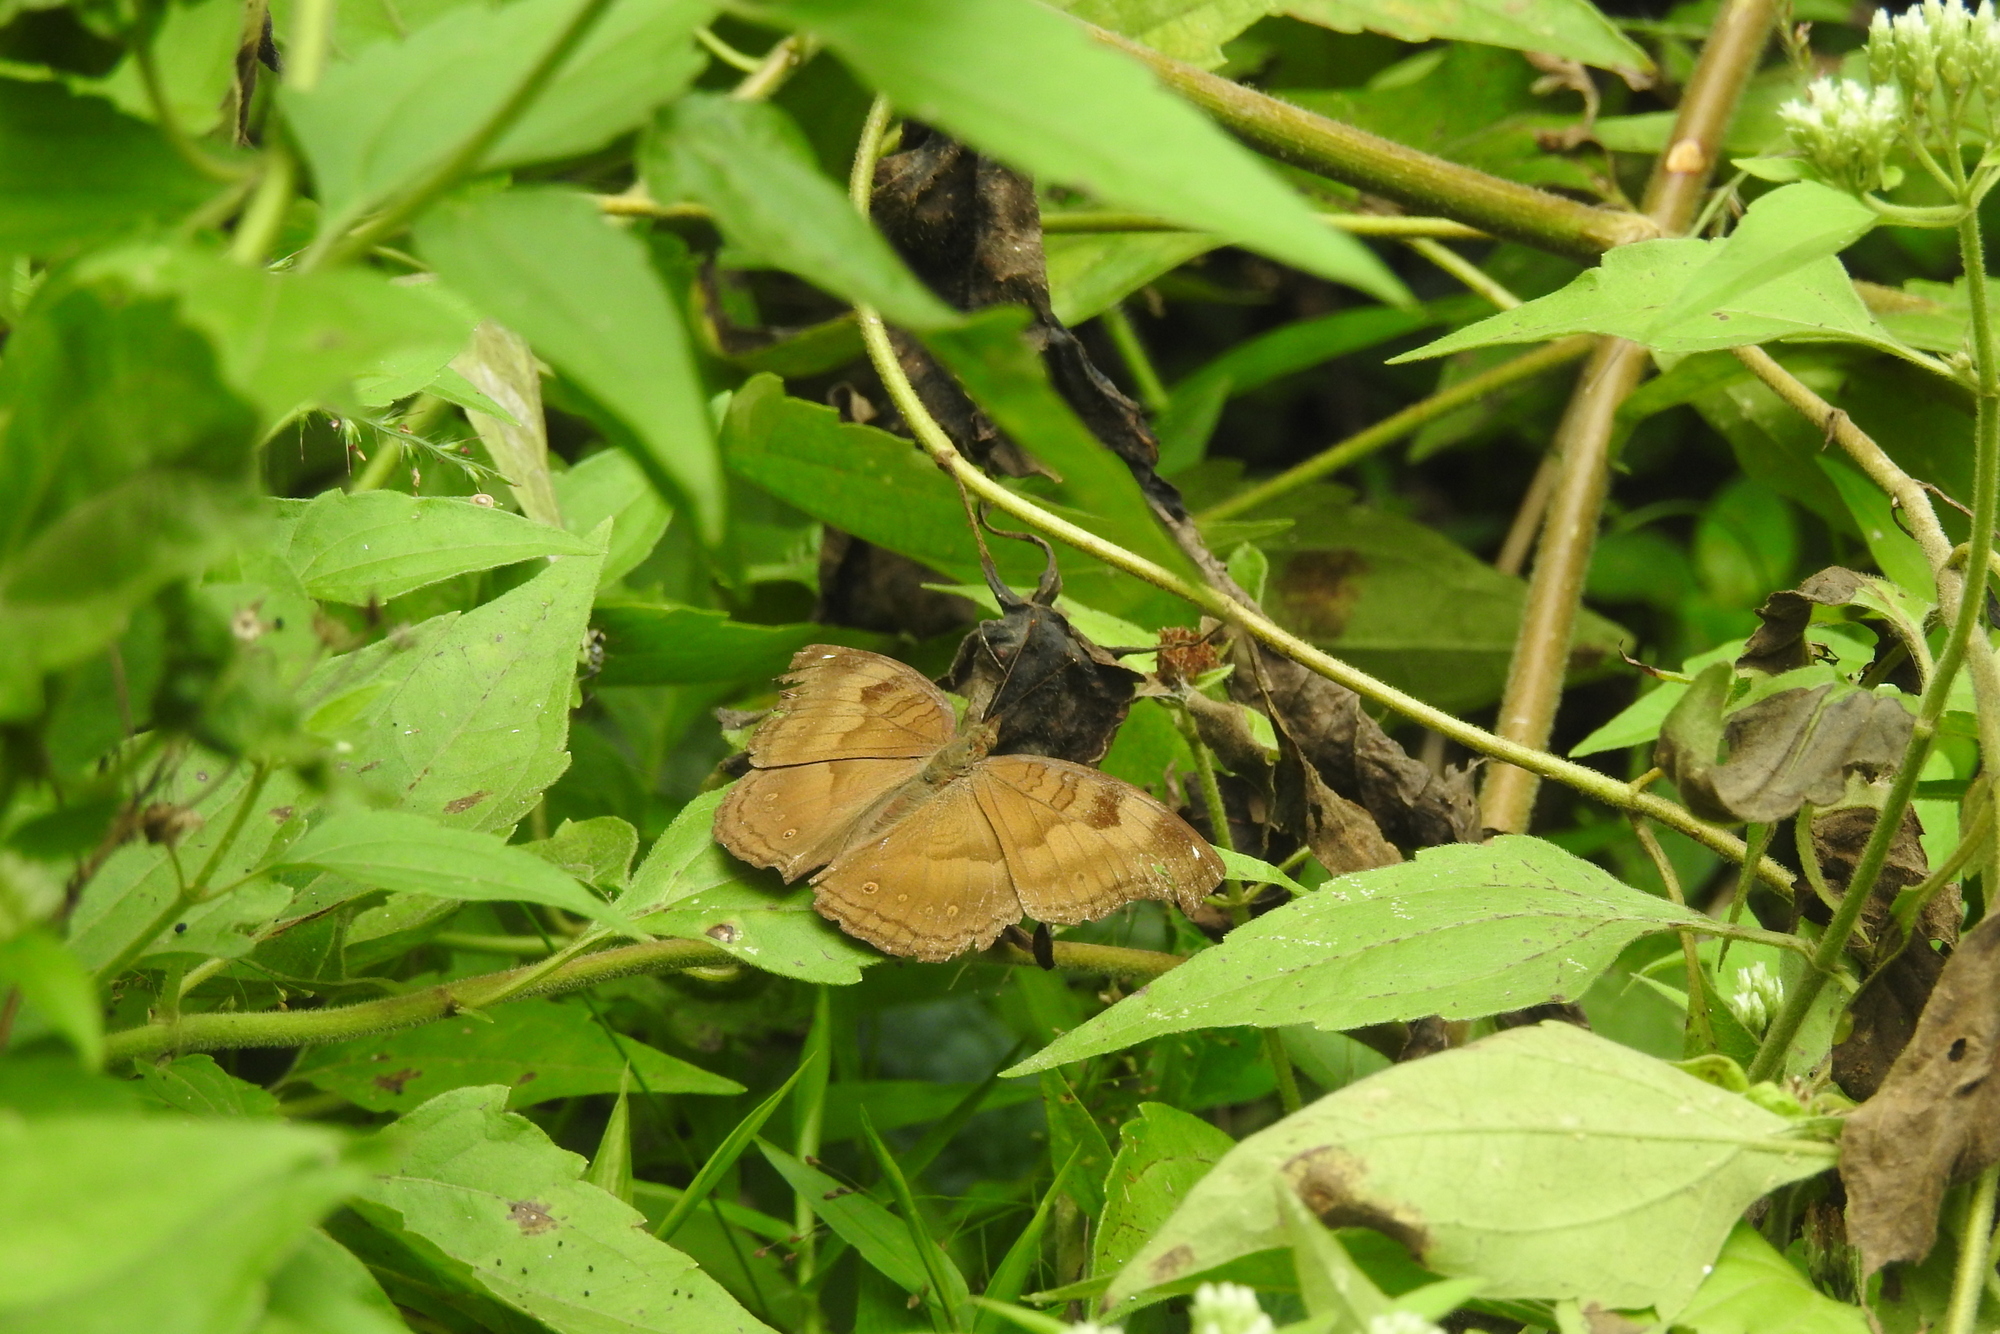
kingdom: Animalia
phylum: Arthropoda
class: Insecta
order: Lepidoptera
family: Nymphalidae
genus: Junonia
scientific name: Junonia iphita
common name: Chocolate pansy
